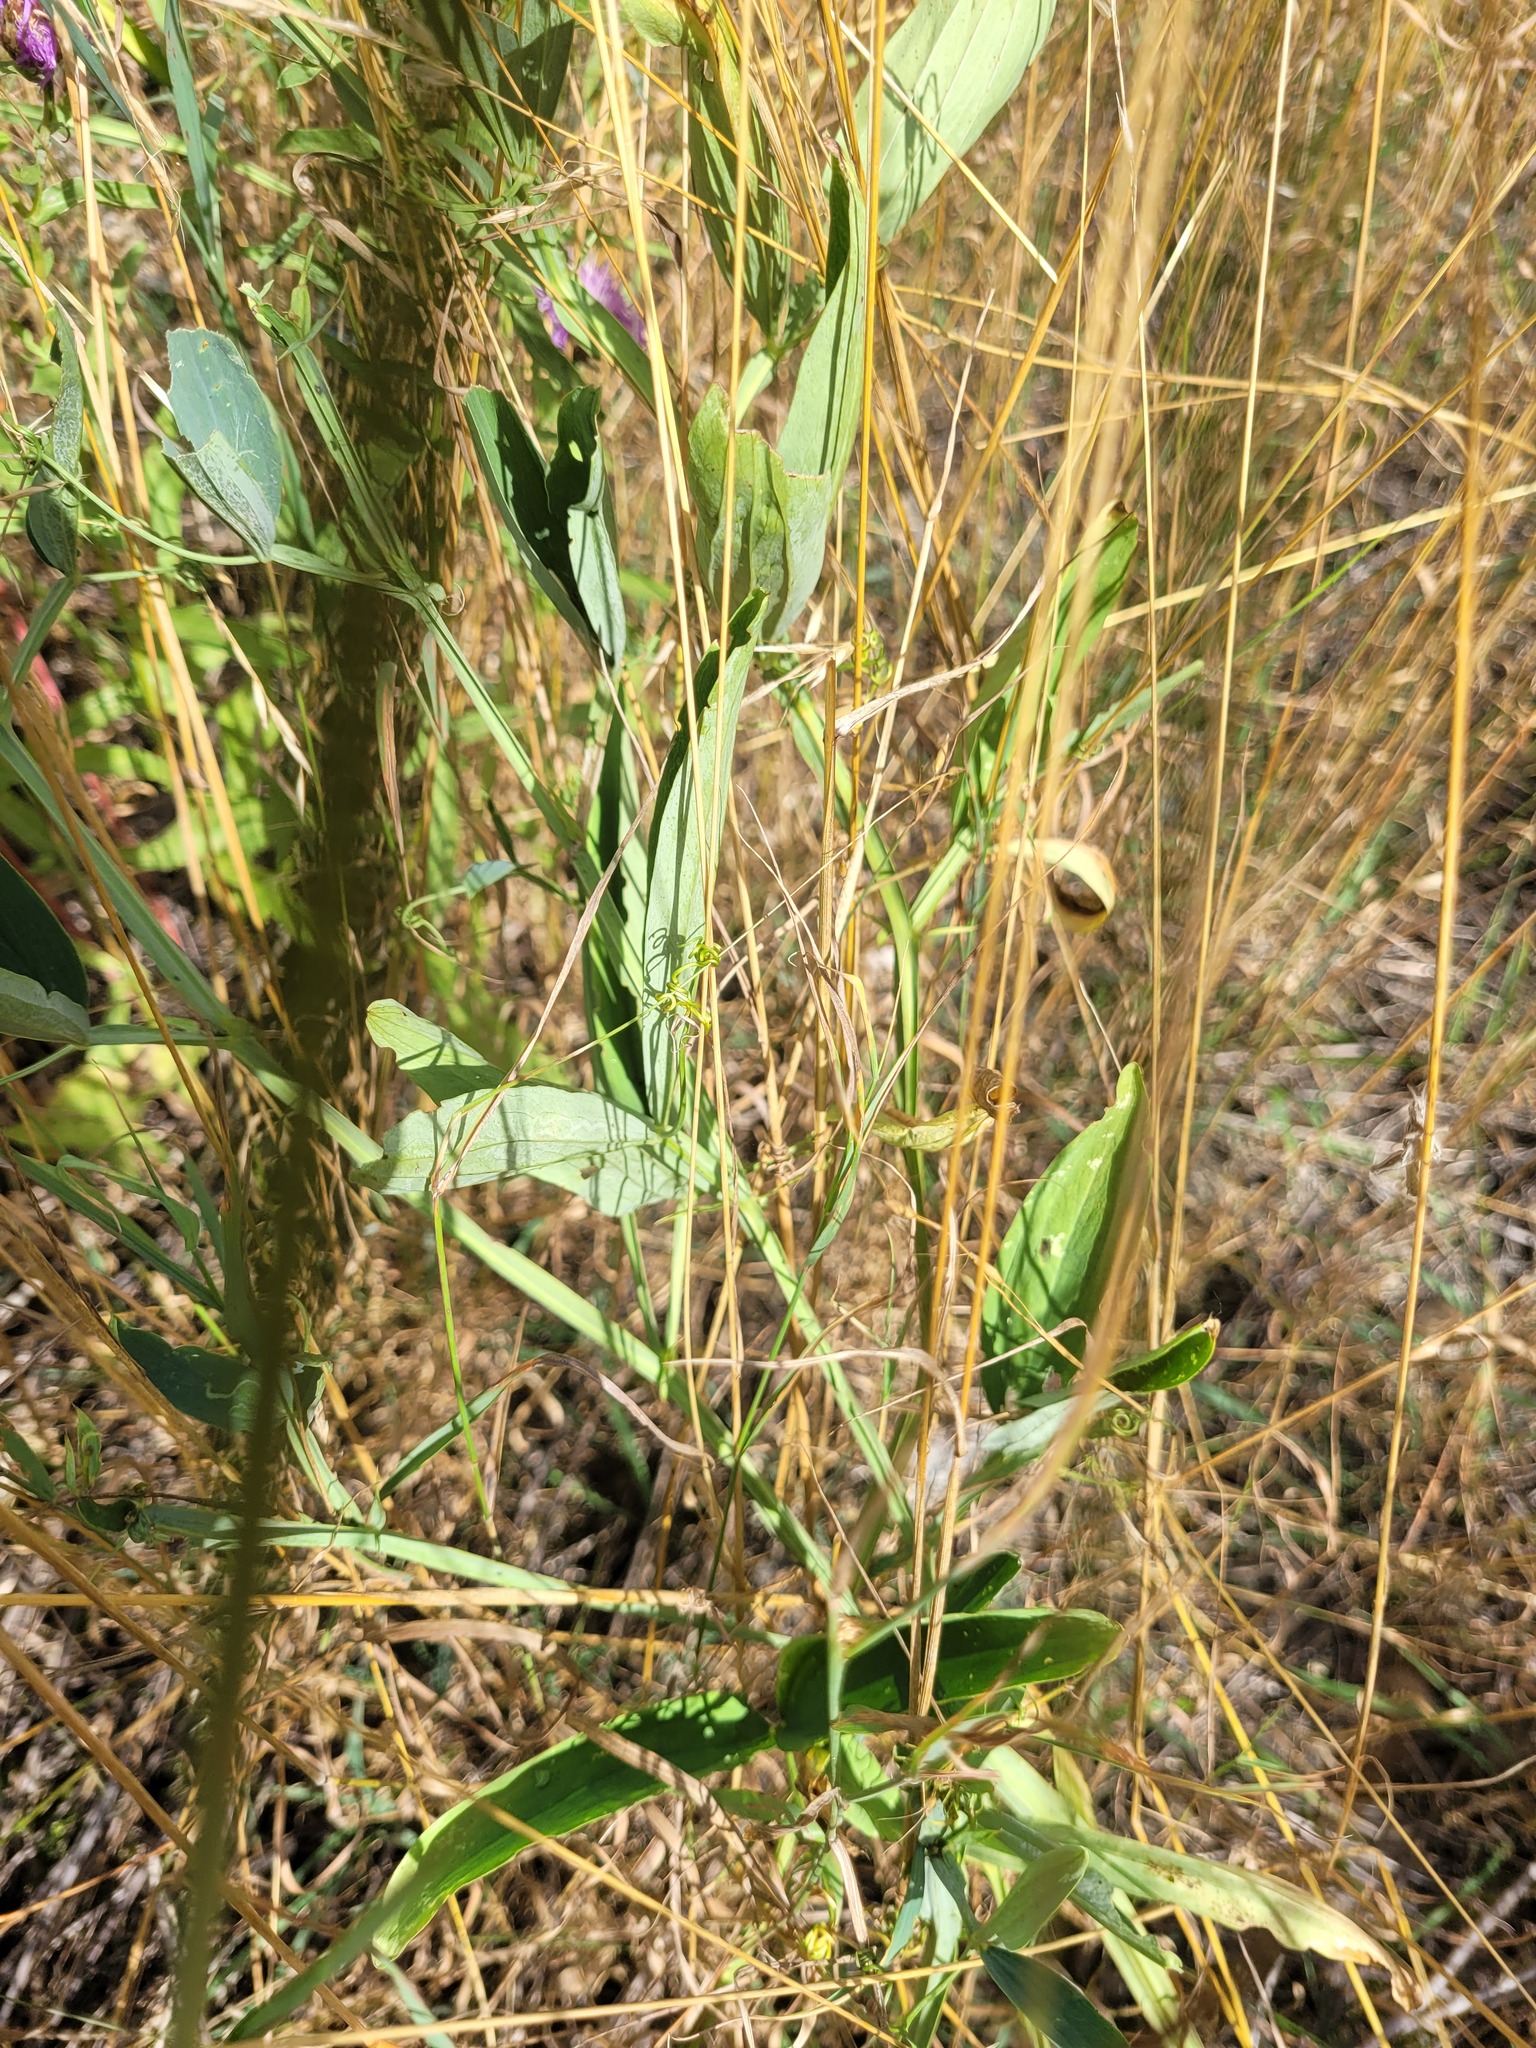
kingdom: Plantae
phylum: Tracheophyta
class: Magnoliopsida
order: Fabales
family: Fabaceae
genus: Lathyrus
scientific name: Lathyrus sylvestris
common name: Flat pea
